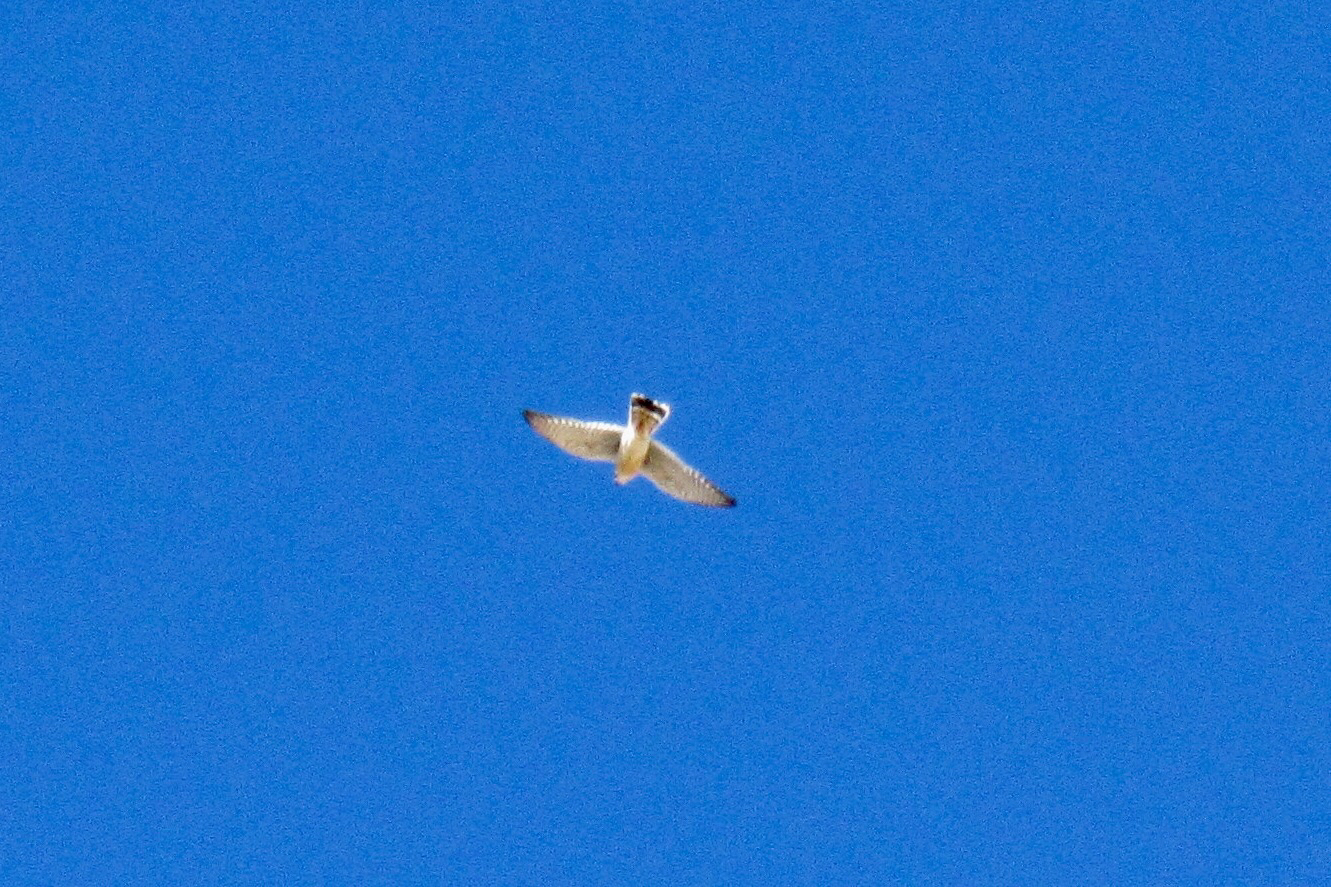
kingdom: Animalia
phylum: Chordata
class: Aves
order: Falconiformes
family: Falconidae
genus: Falco
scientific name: Falco sparverius
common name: American kestrel
